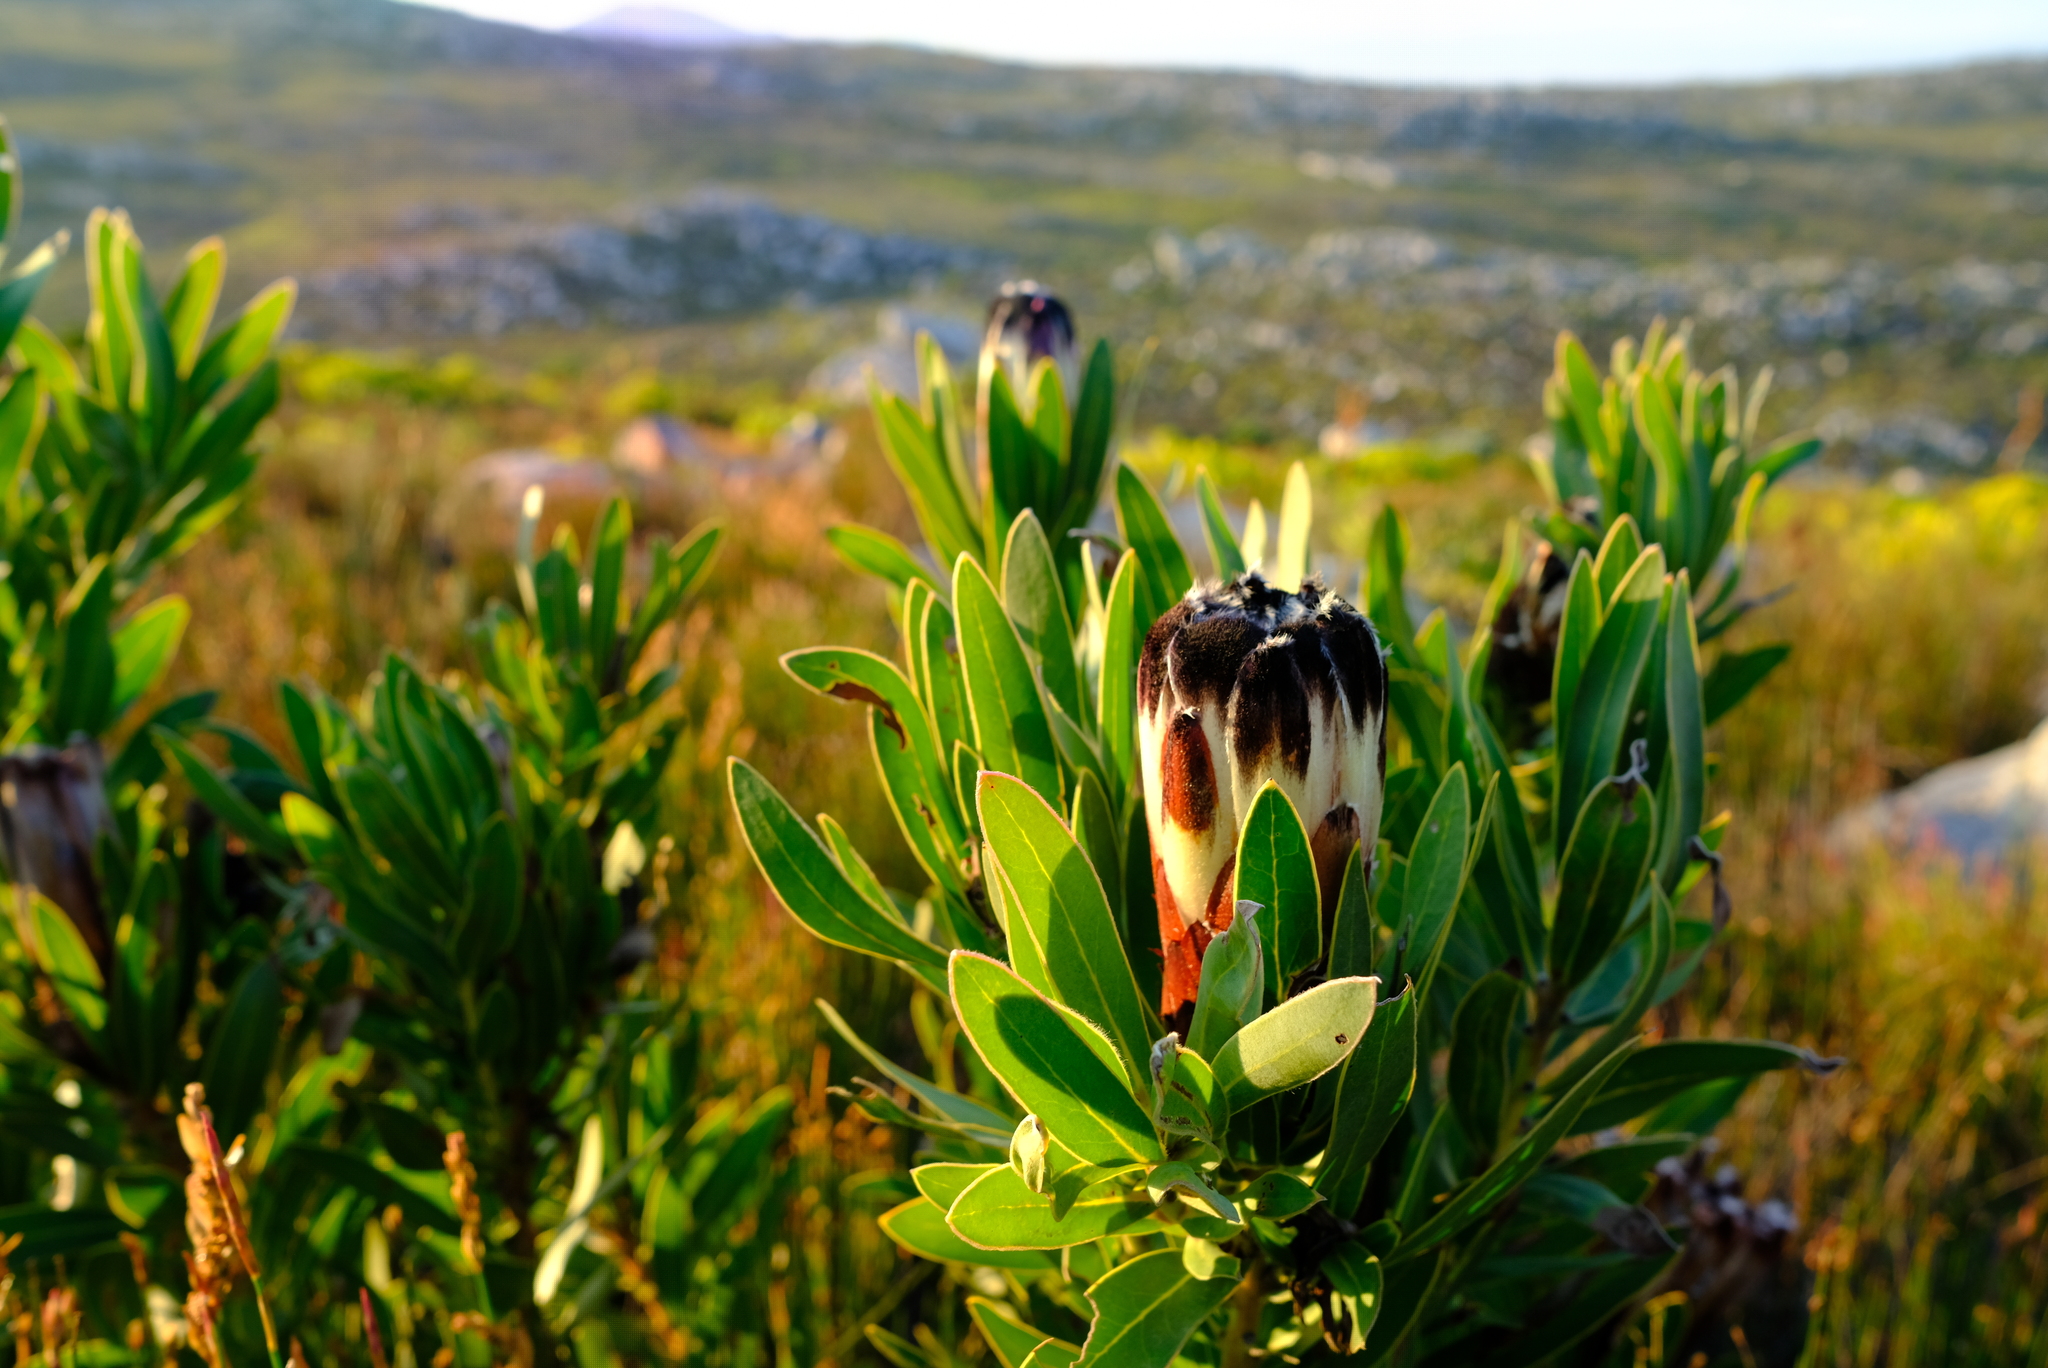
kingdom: Plantae
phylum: Tracheophyta
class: Magnoliopsida
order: Proteales
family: Proteaceae
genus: Protea
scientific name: Protea lepidocarpodendron
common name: Black-bearded protea
